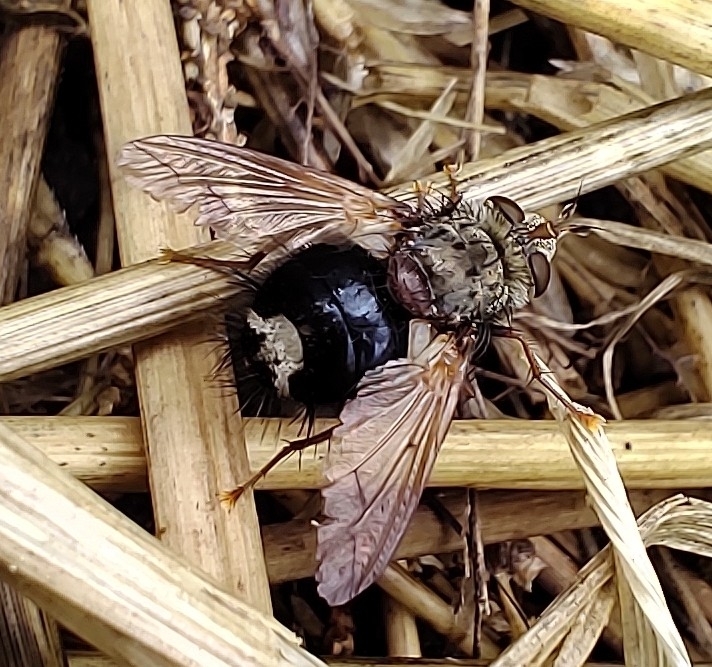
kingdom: Animalia
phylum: Arthropoda
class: Insecta
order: Diptera
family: Tachinidae
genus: Epalpus
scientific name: Epalpus signifer
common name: Early tachinid fly
